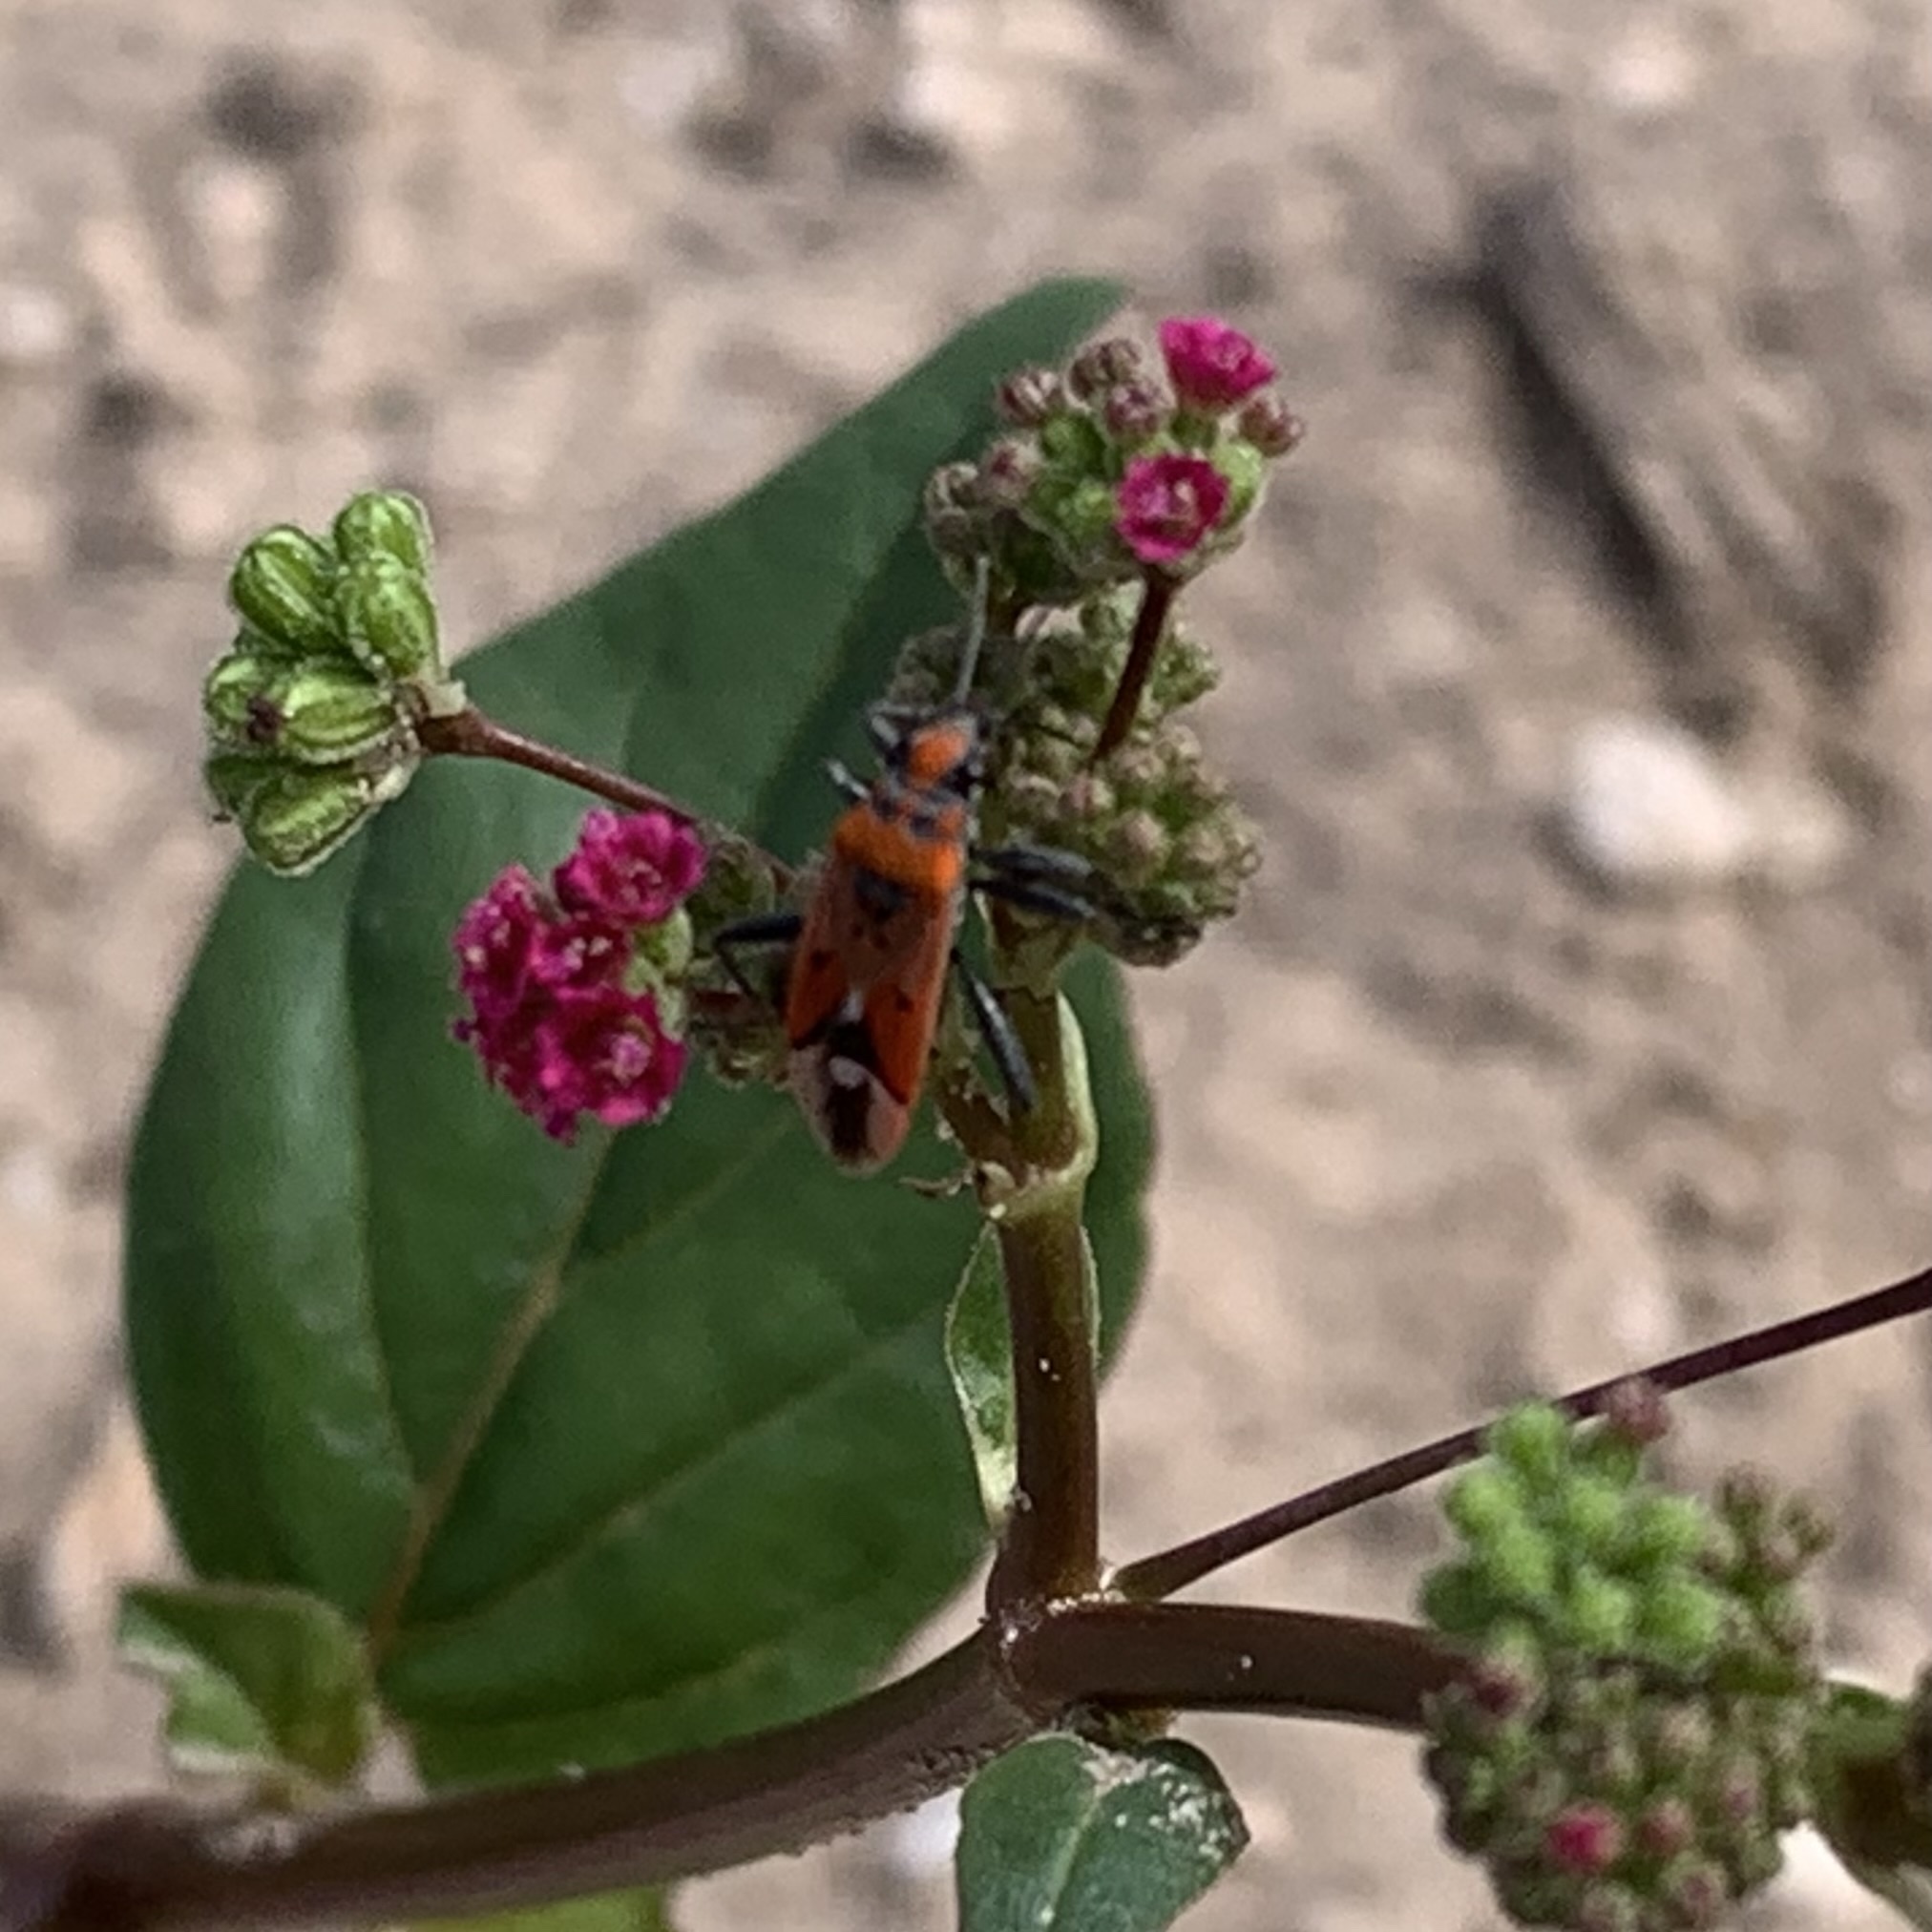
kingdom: Animalia
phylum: Arthropoda
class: Insecta
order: Hemiptera
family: Lygaeidae
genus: Haemobaphus
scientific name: Haemobaphus concinnus
